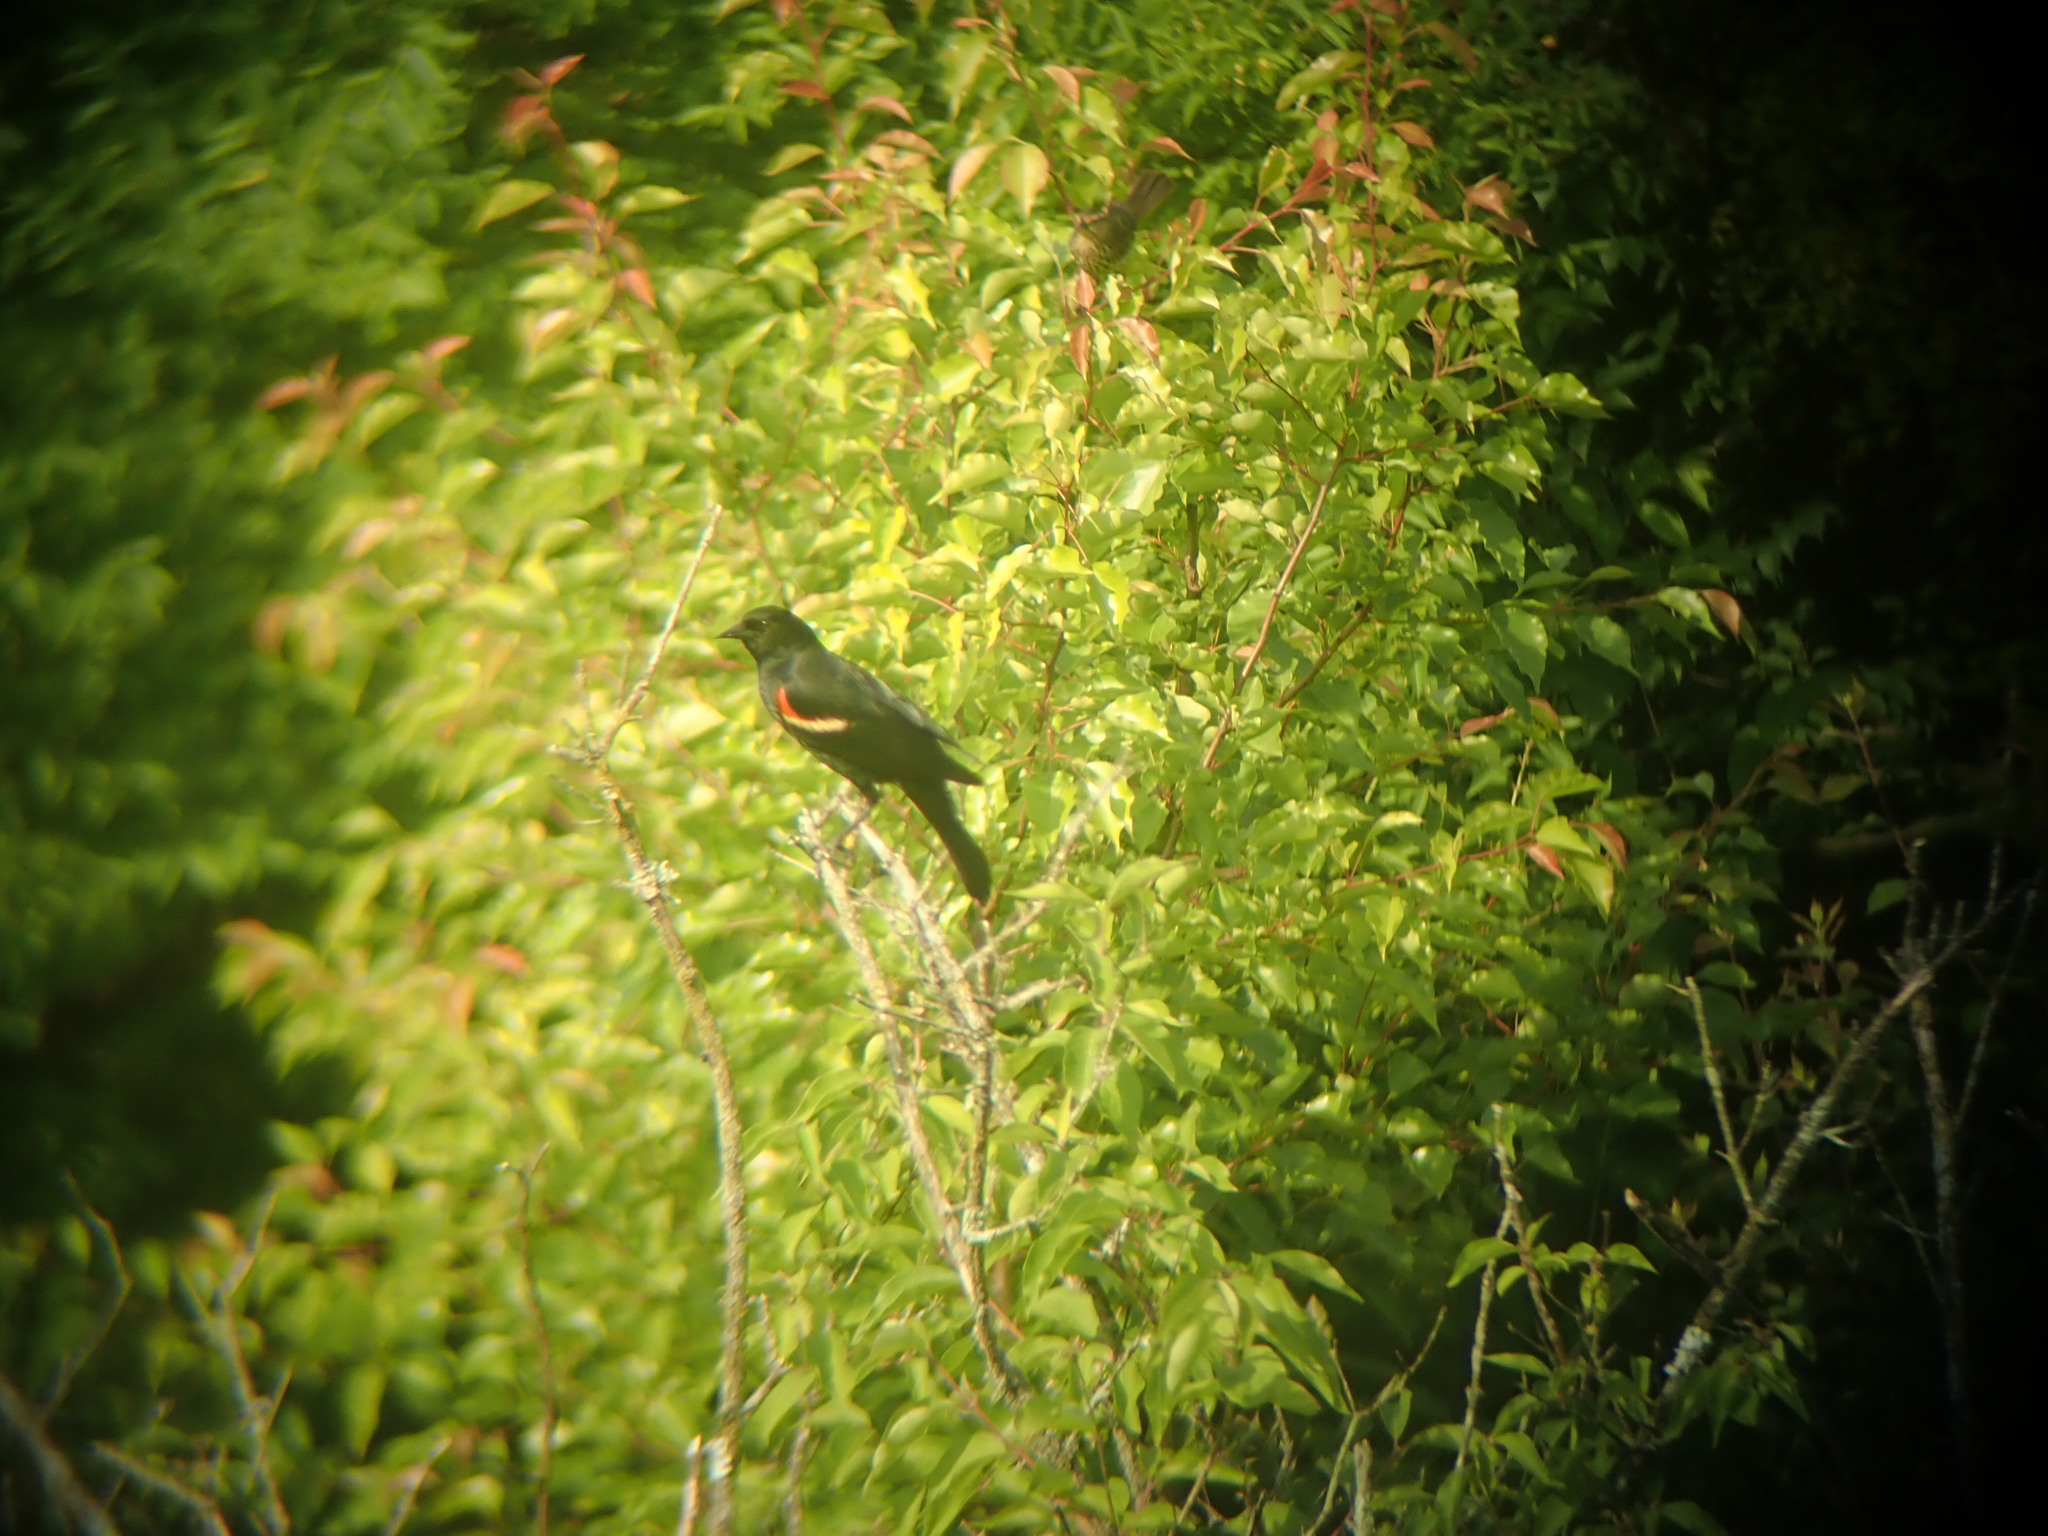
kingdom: Animalia
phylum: Chordata
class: Aves
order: Passeriformes
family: Icteridae
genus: Agelaius
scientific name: Agelaius phoeniceus
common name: Red-winged blackbird
